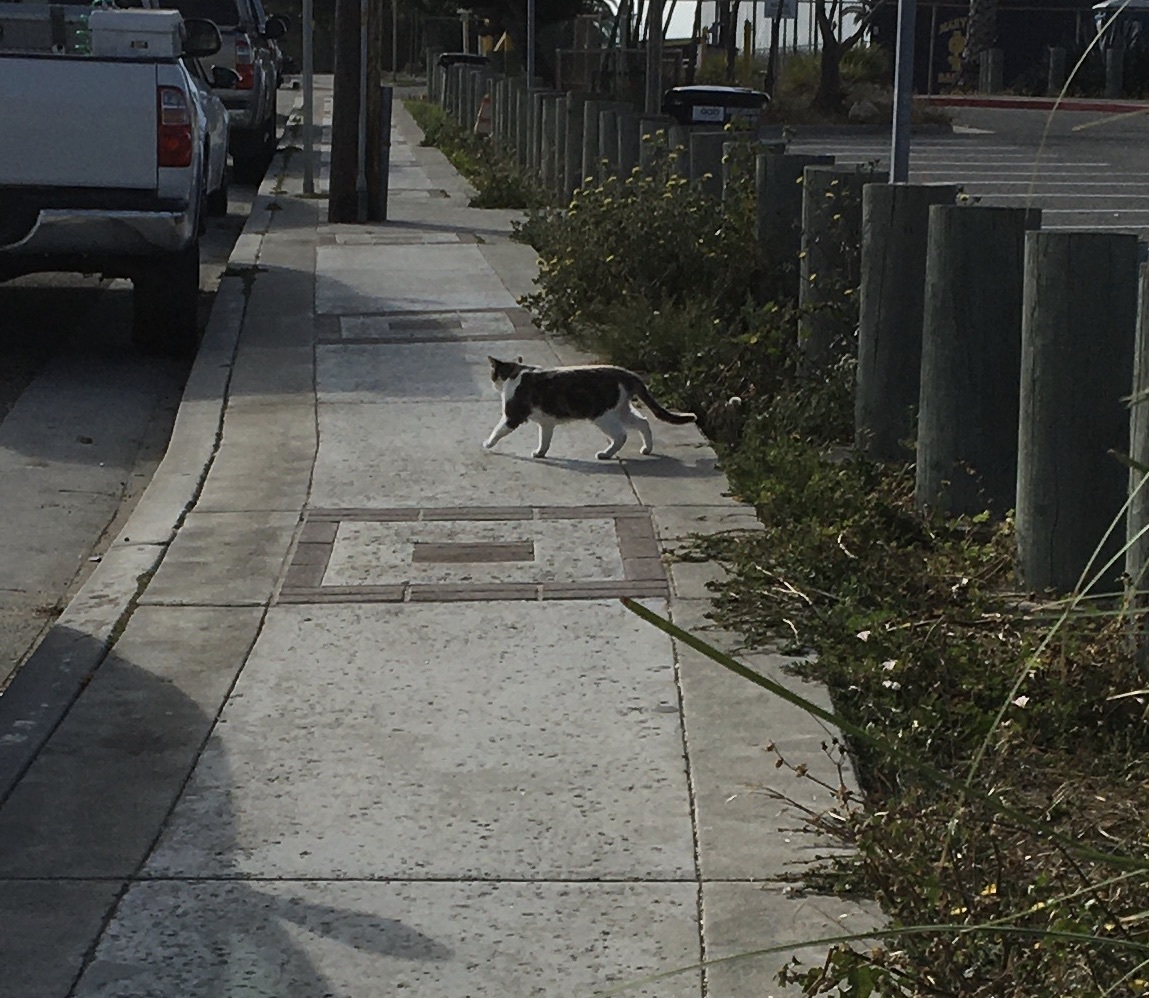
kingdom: Animalia
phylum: Chordata
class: Mammalia
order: Carnivora
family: Felidae
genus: Felis
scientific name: Felis catus
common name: Domestic cat
